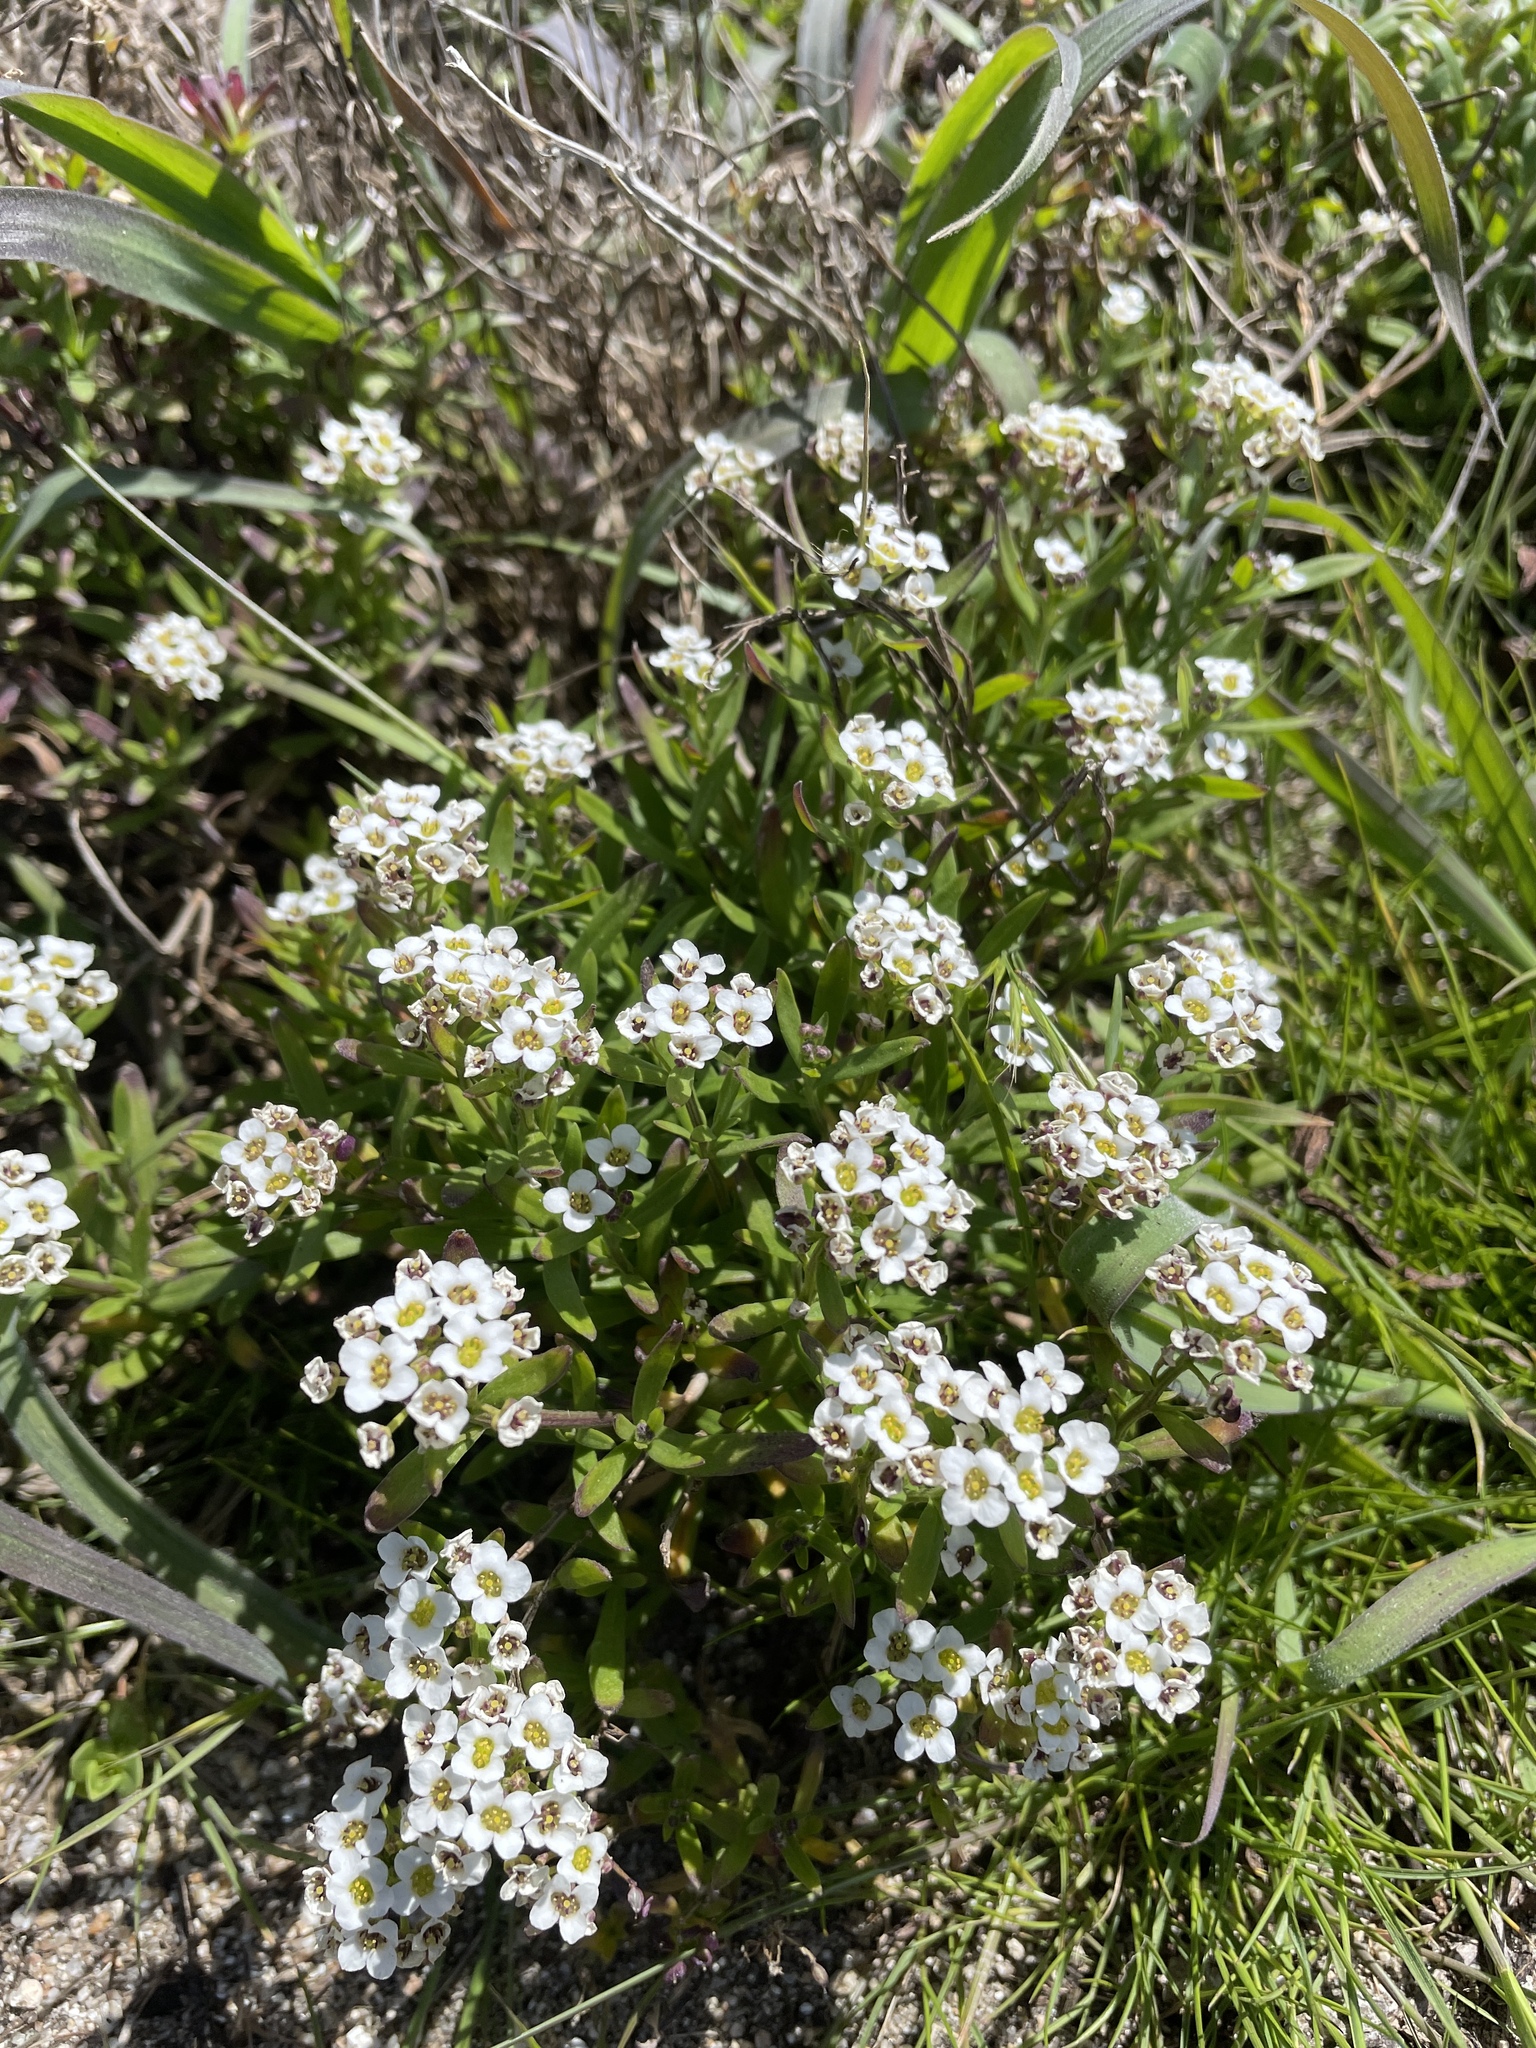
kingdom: Plantae
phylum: Tracheophyta
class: Magnoliopsida
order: Brassicales
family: Brassicaceae
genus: Lobularia
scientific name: Lobularia maritima
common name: Sweet alison
